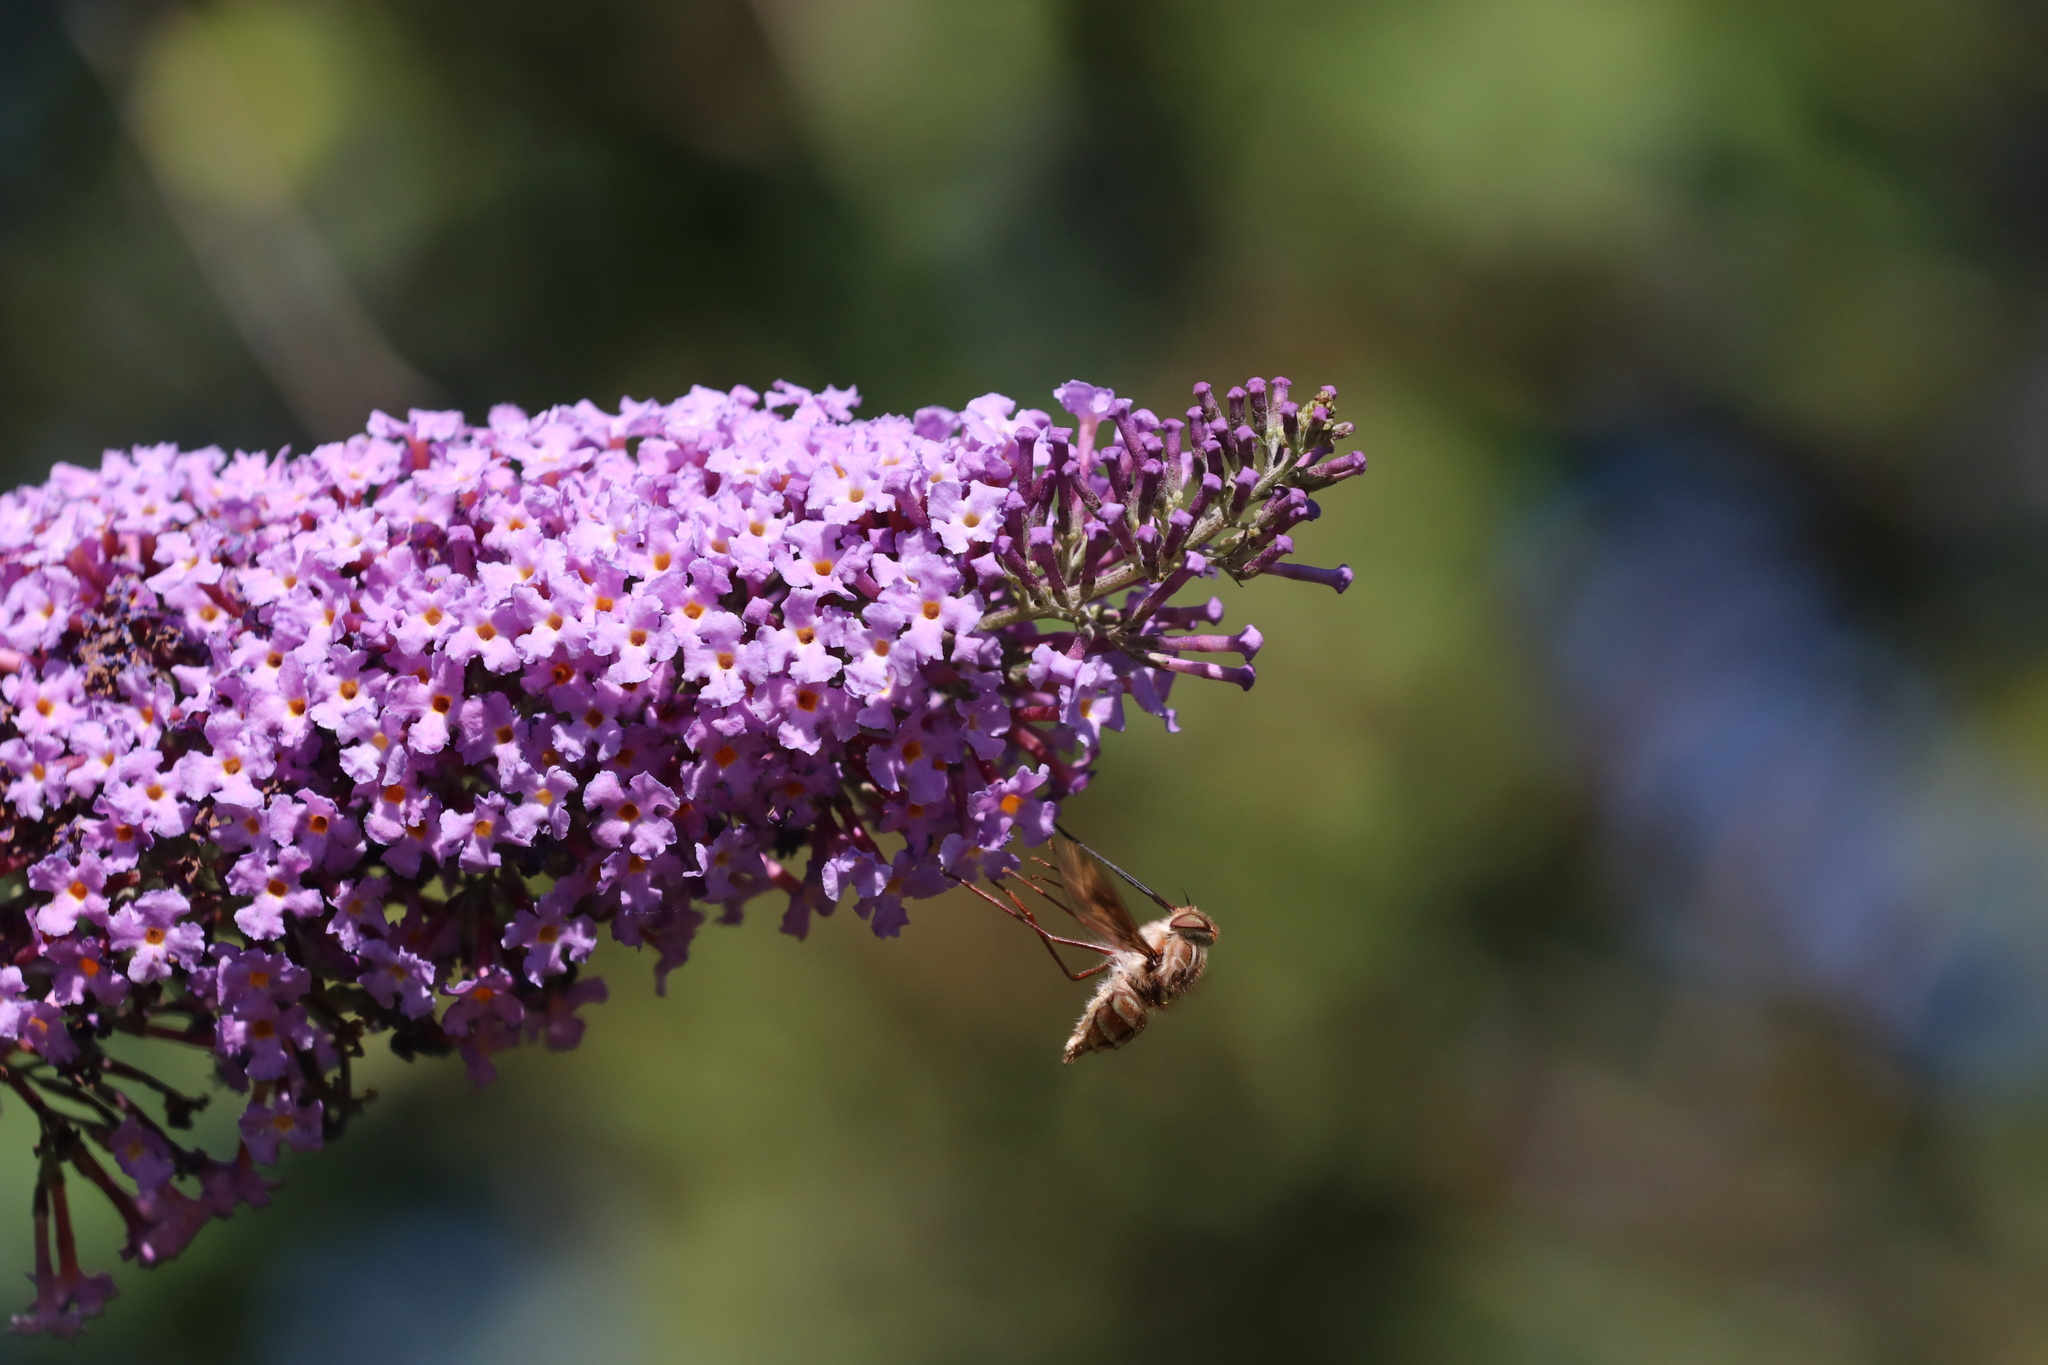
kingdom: Animalia
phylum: Arthropoda
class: Insecta
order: Diptera
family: Nemestrinidae
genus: Trichophthalma
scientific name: Trichophthalma nubipennis
